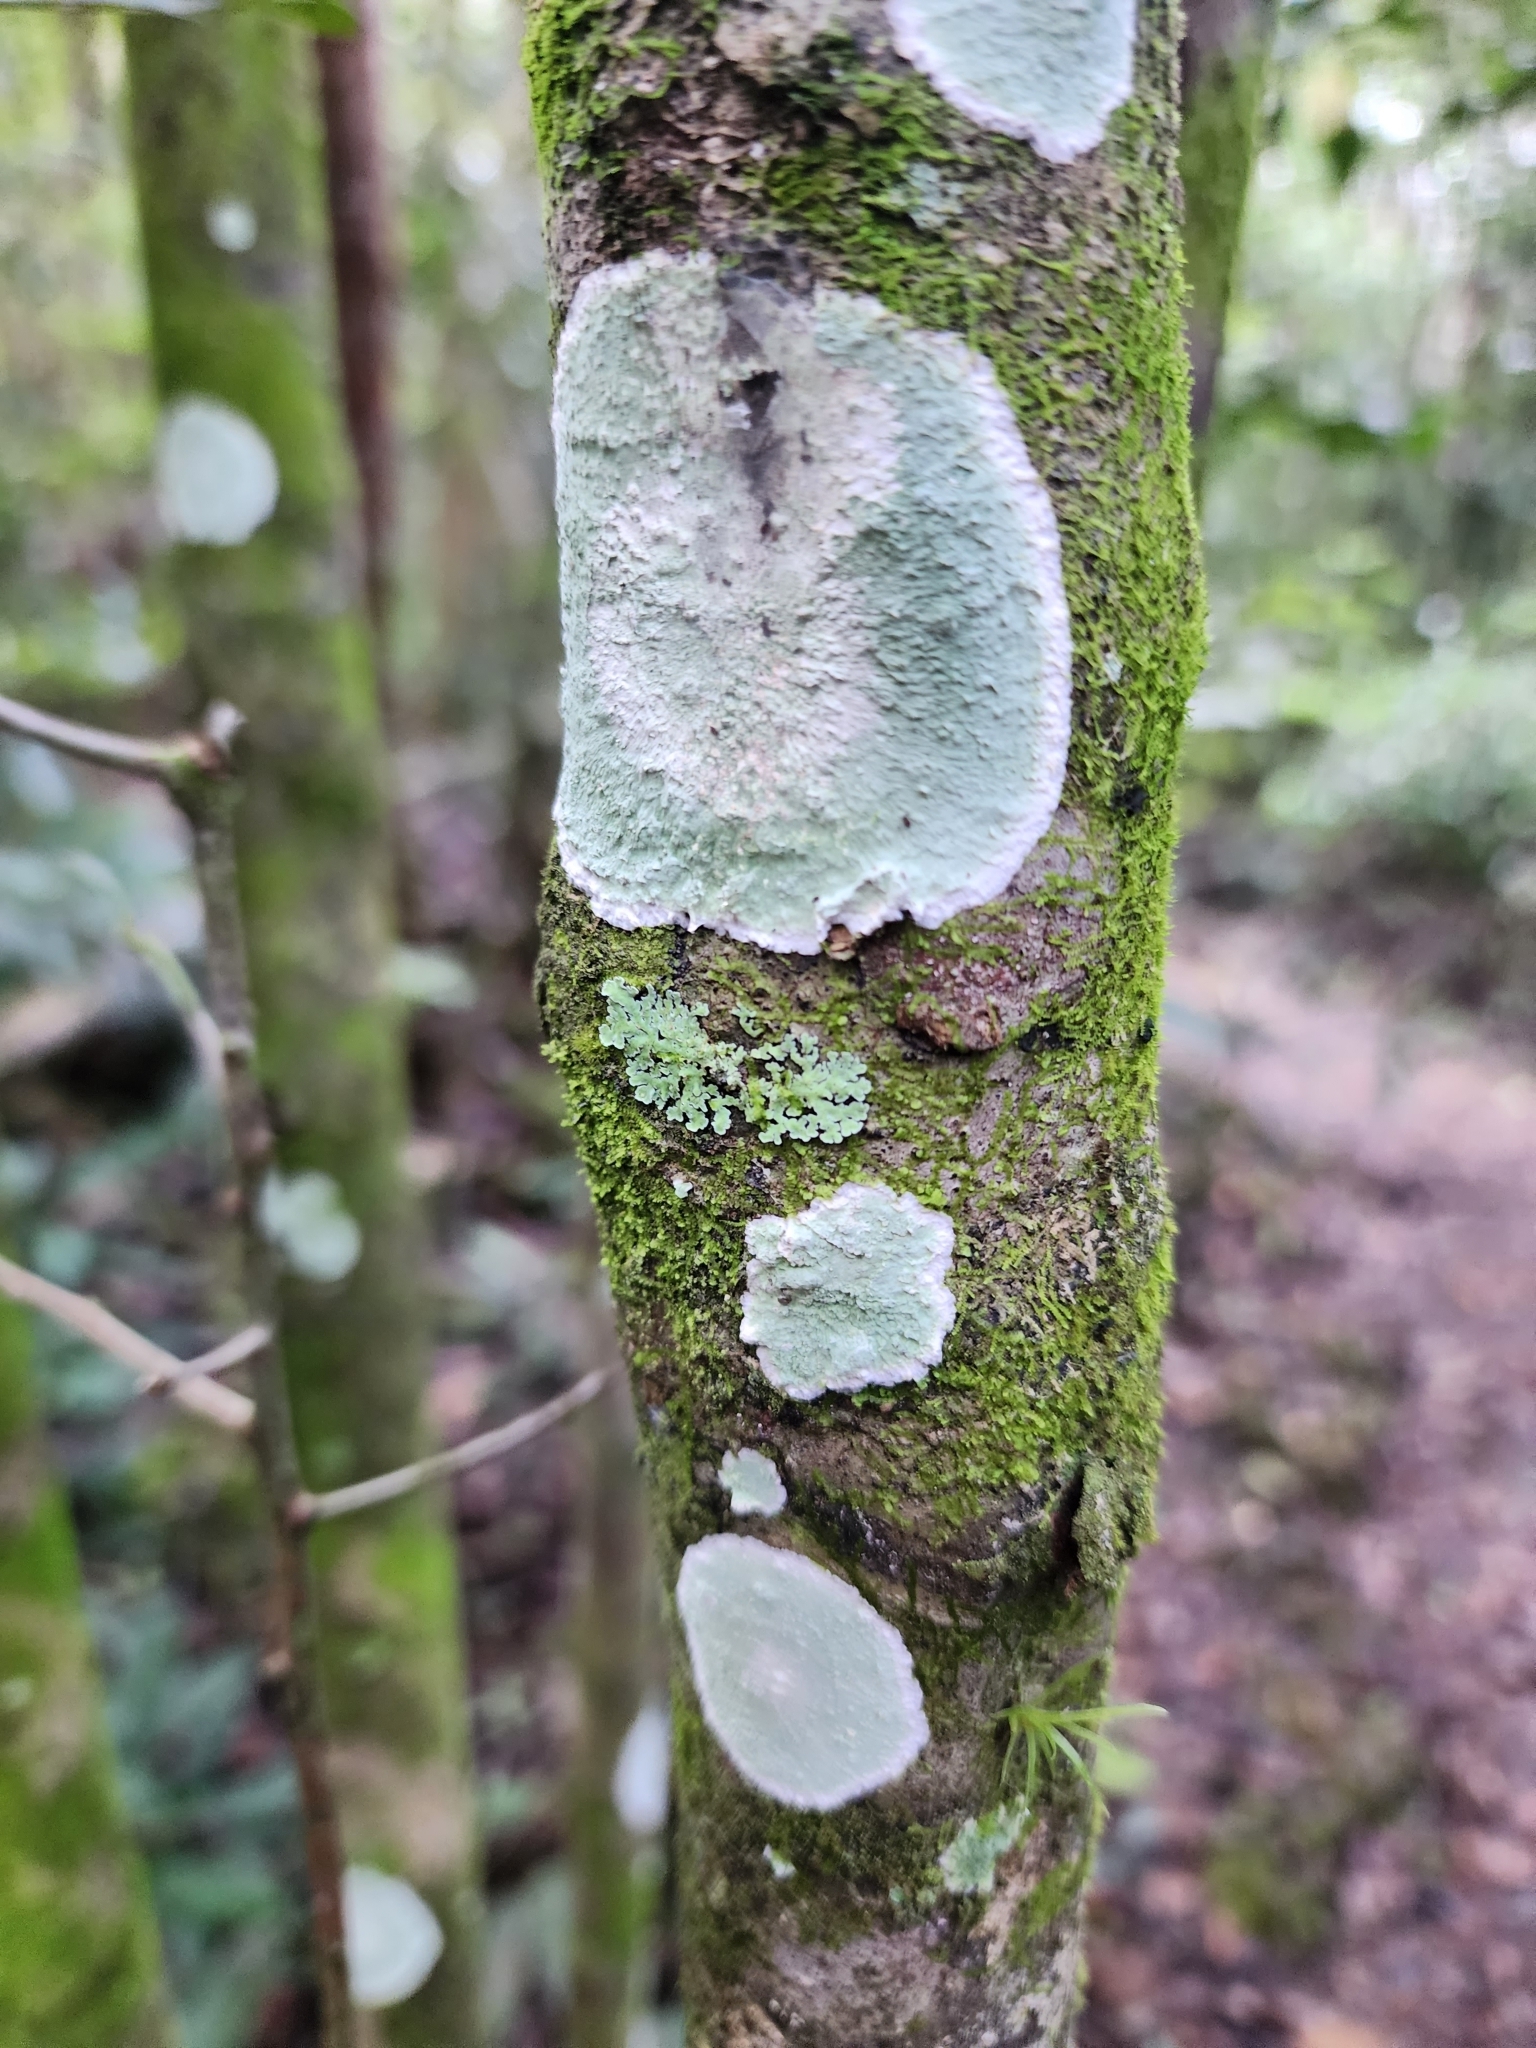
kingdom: Fungi
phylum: Ascomycota
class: Arthoniomycetes
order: Arthoniales
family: Arthoniaceae
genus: Cryptothecia
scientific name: Cryptothecia striata
